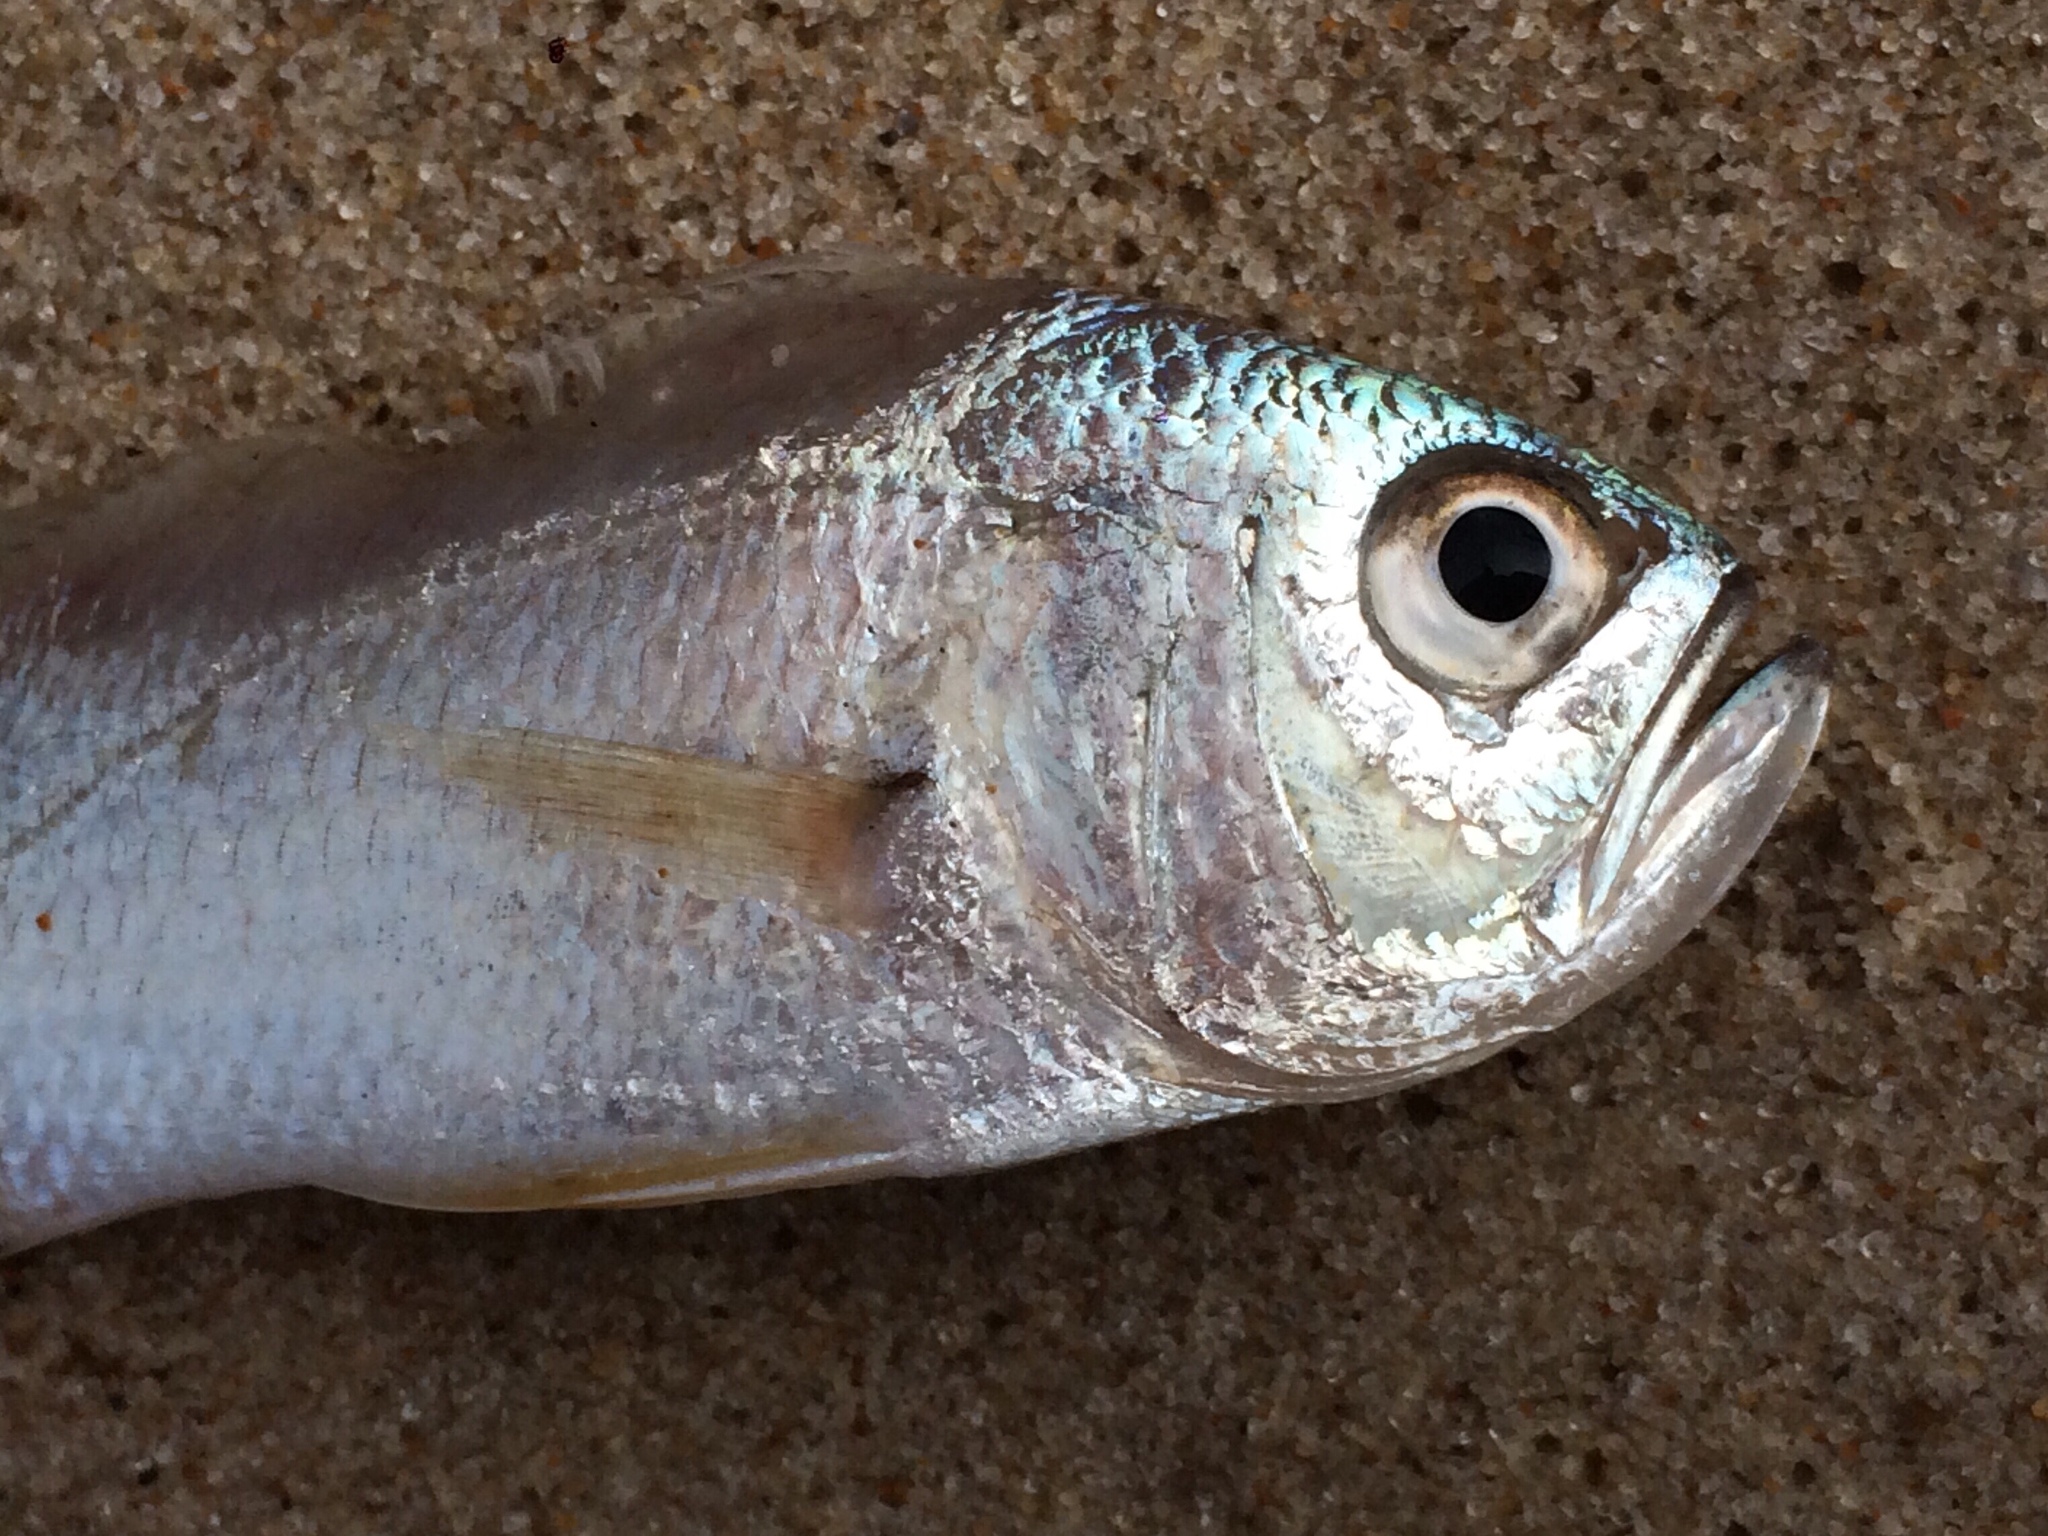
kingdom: Animalia
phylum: Chordata
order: Perciformes
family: Sciaenidae
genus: Larimus
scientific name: Larimus breviceps
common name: Cabezon
